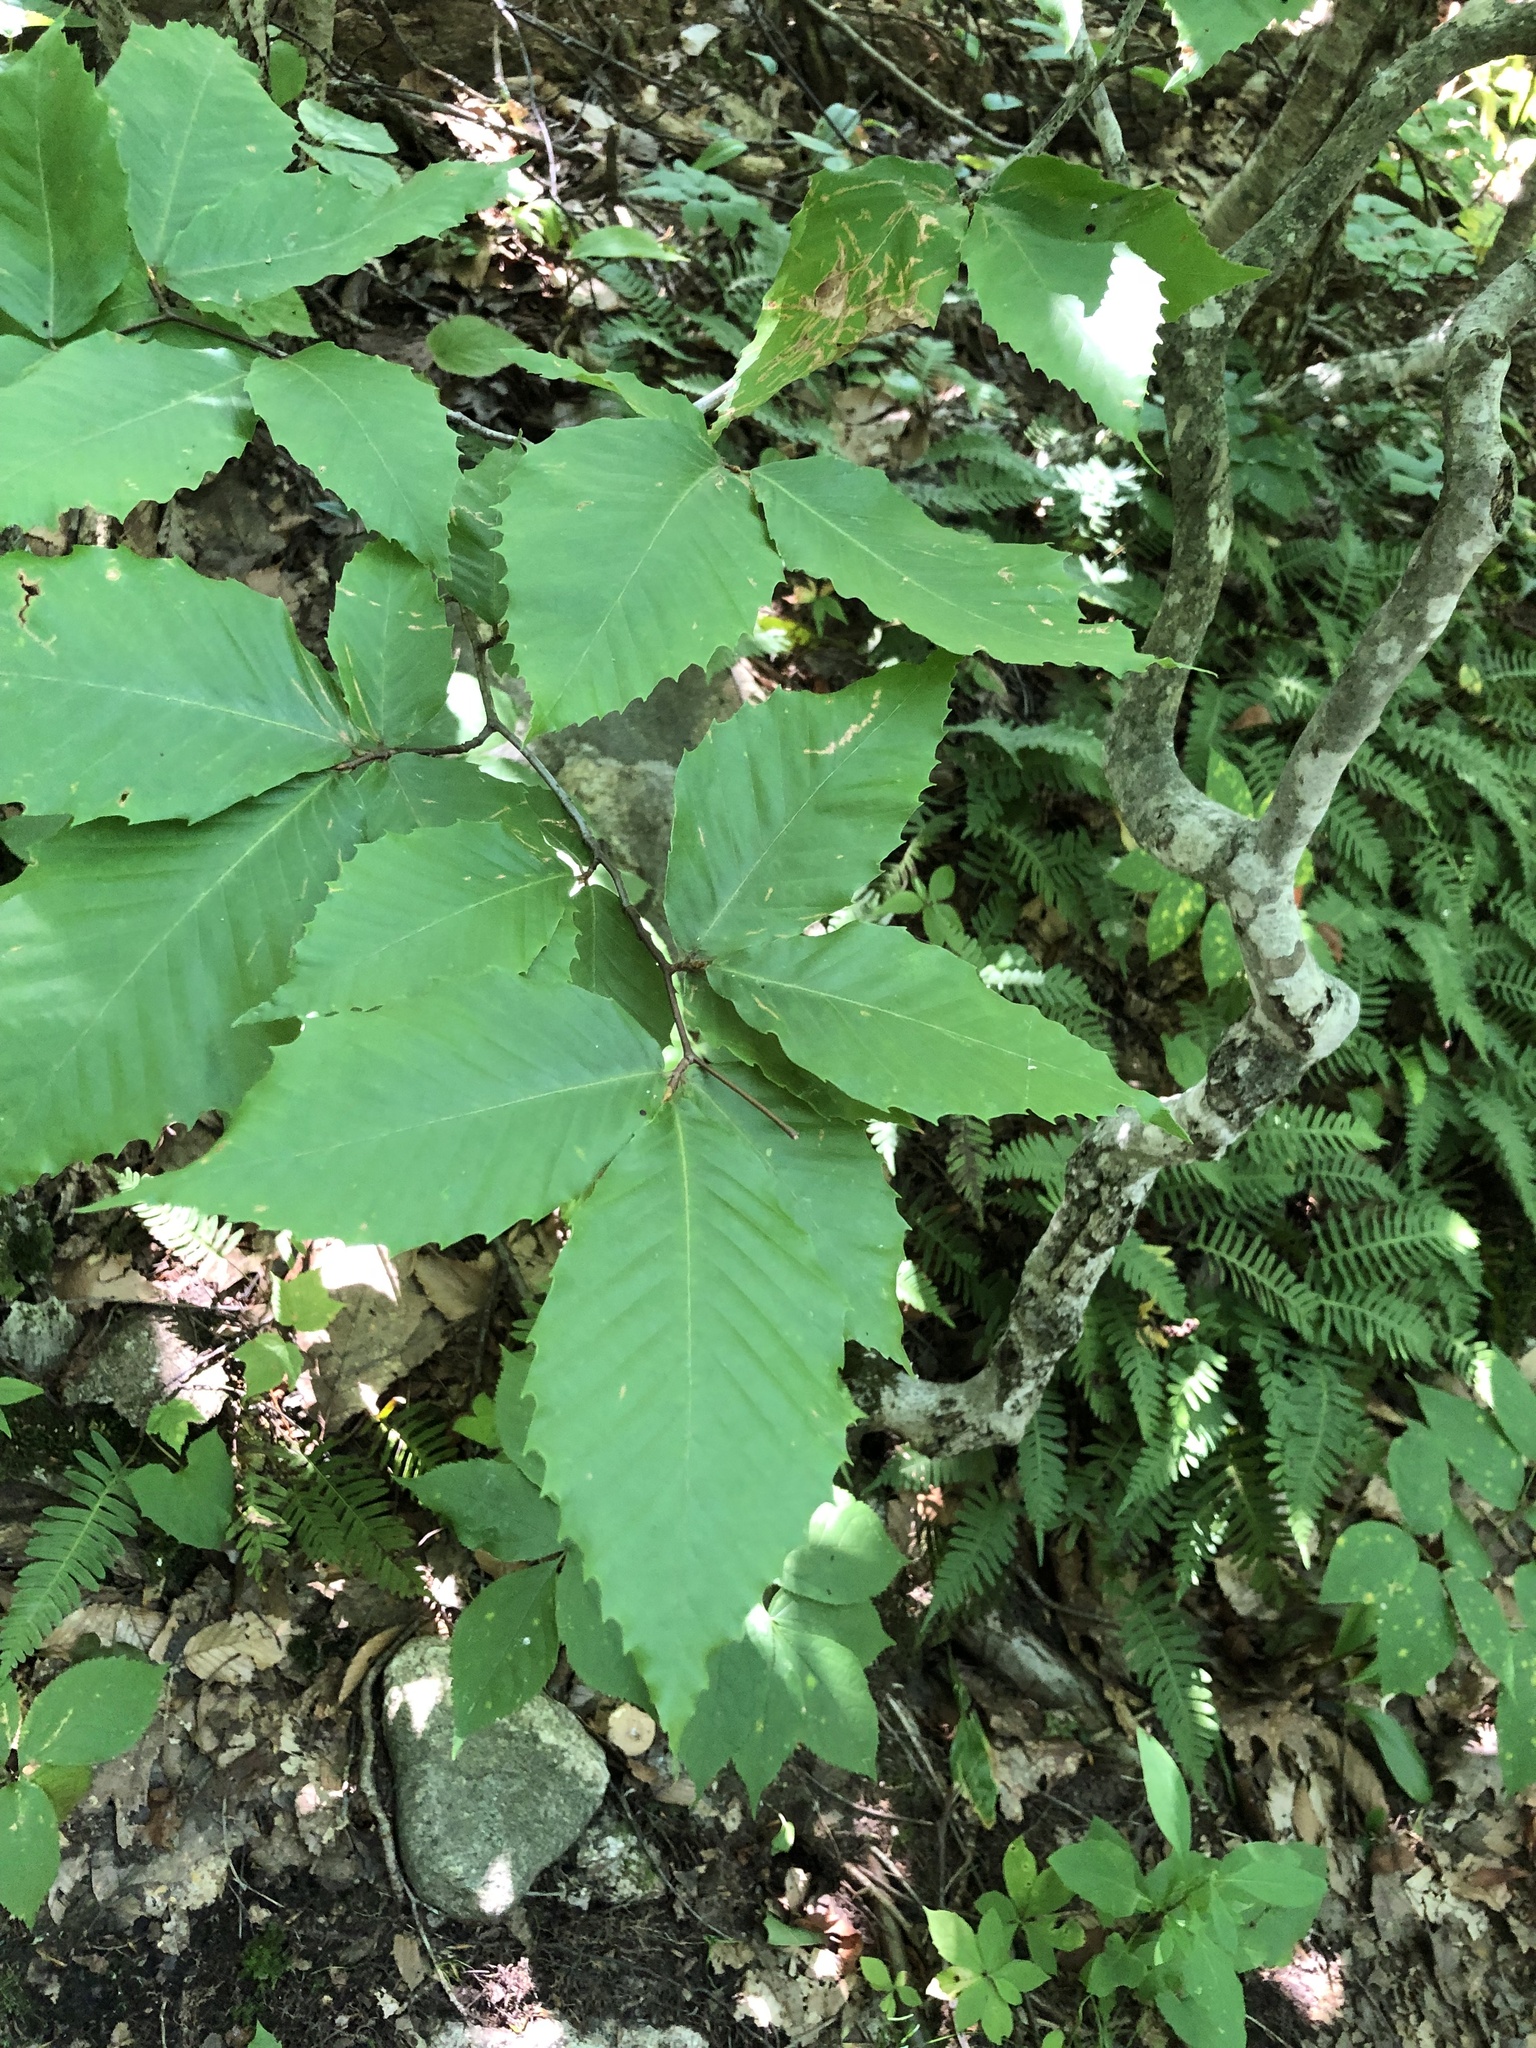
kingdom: Plantae
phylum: Tracheophyta
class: Magnoliopsida
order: Fagales
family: Fagaceae
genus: Fagus
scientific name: Fagus grandifolia
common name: American beech
